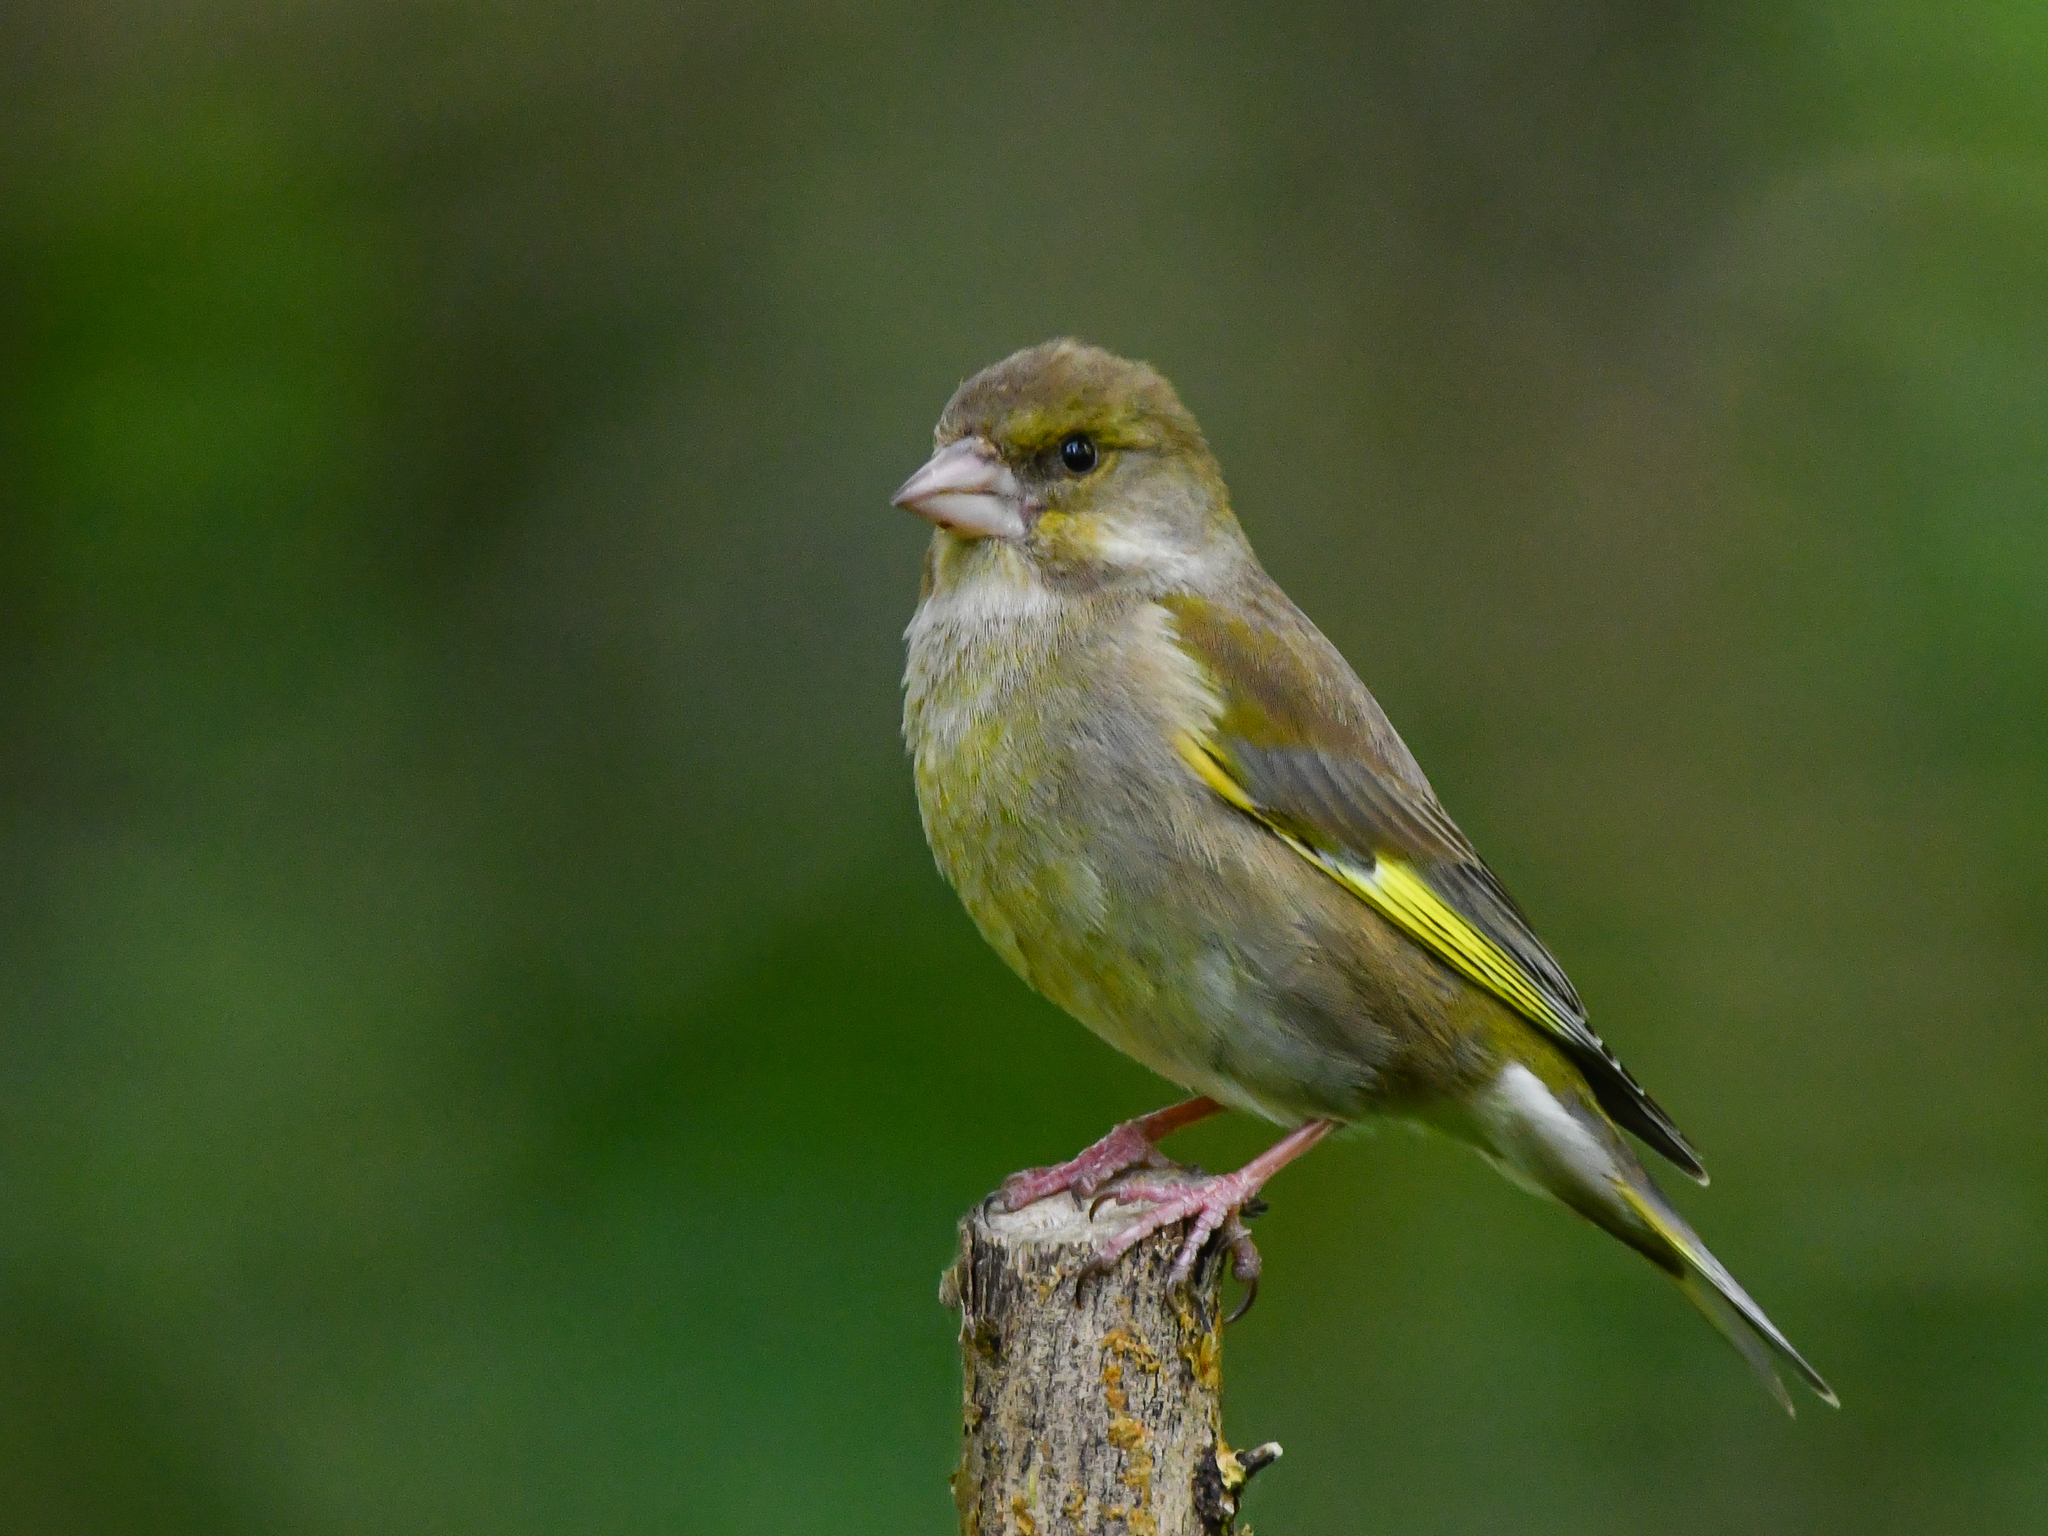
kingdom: Plantae
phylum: Tracheophyta
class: Liliopsida
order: Poales
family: Poaceae
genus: Chloris
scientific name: Chloris chloris
